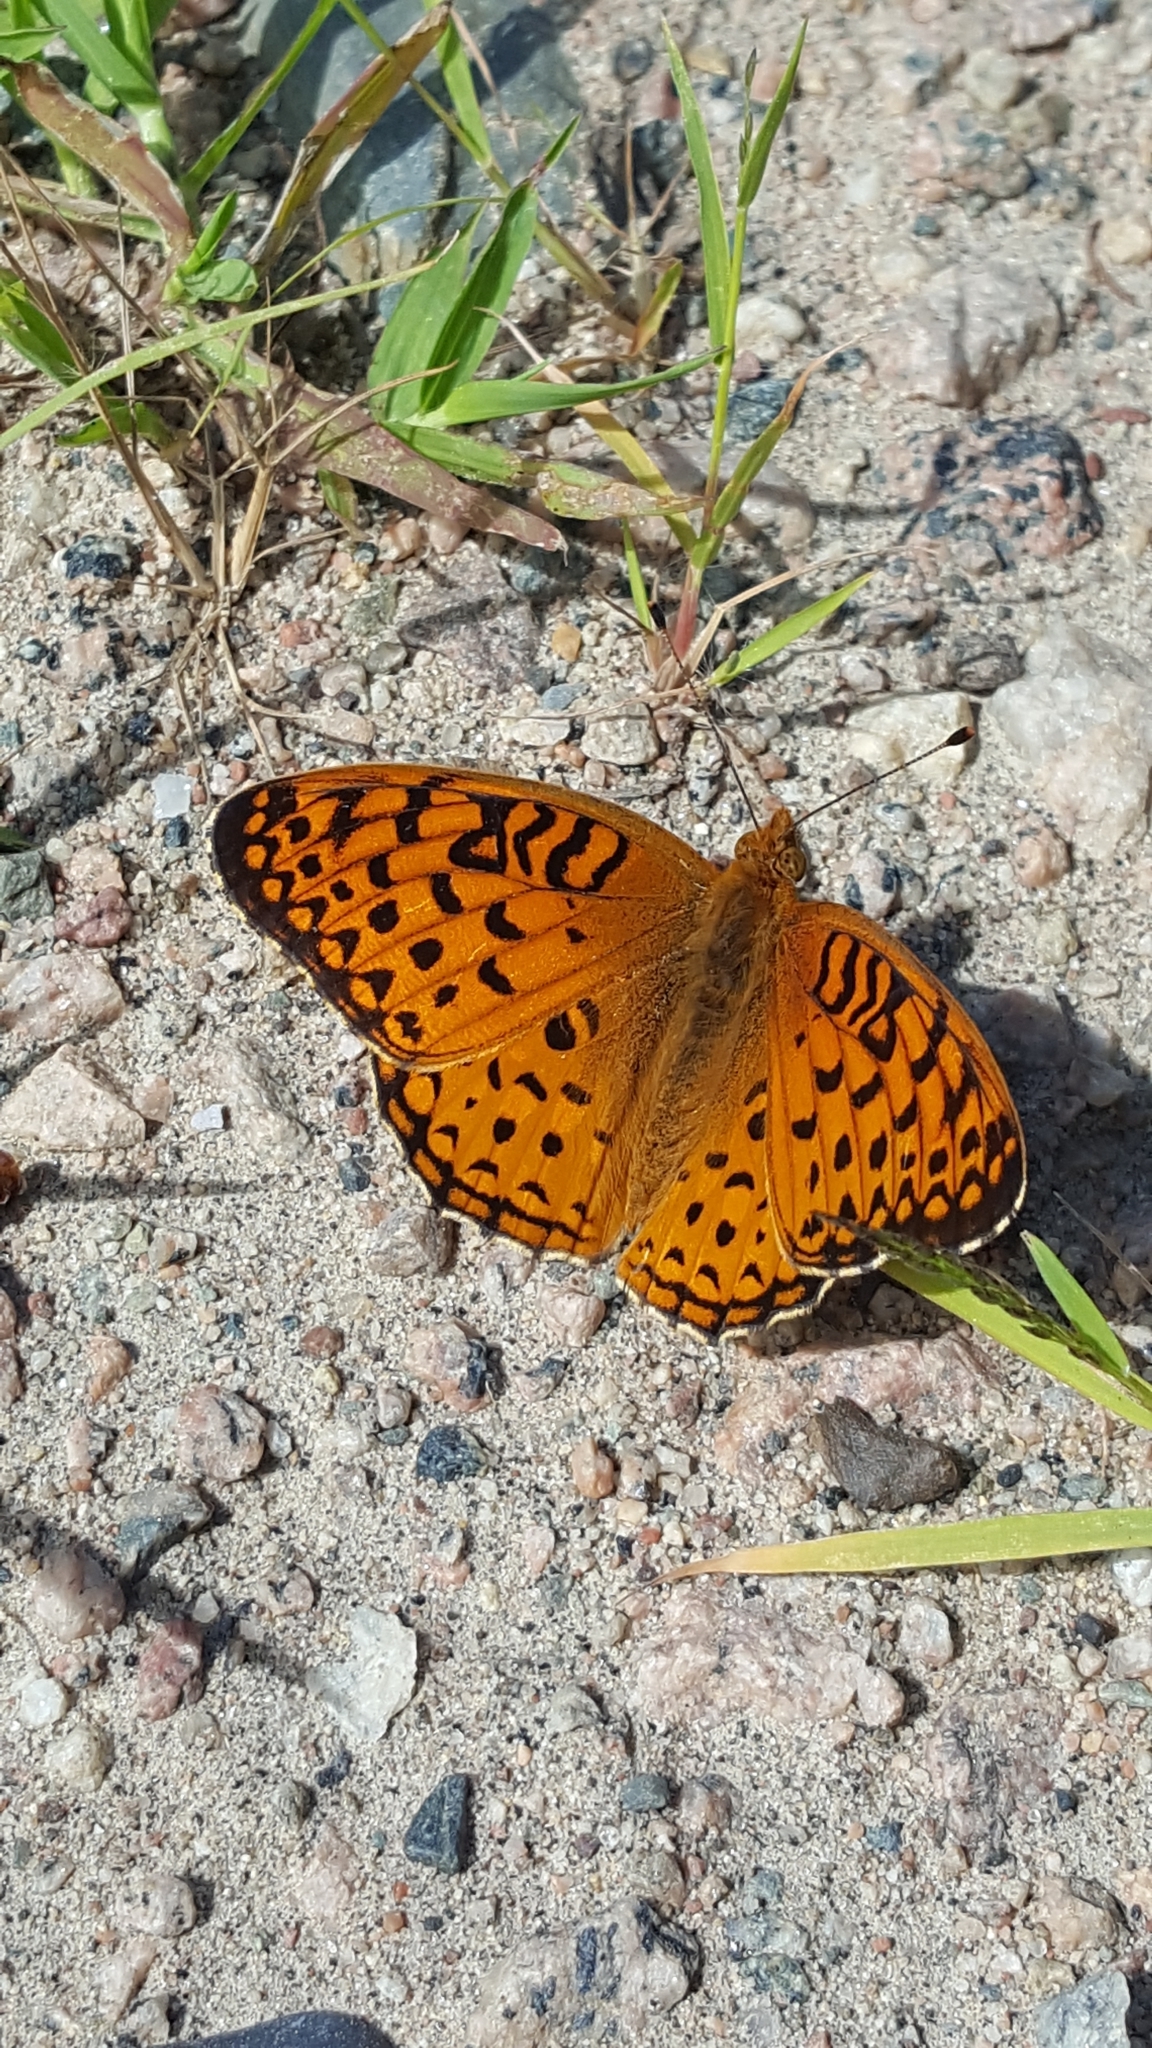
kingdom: Animalia
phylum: Arthropoda
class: Insecta
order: Lepidoptera
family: Nymphalidae
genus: Speyeria
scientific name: Speyeria aphrodite
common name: Aphrodite friitllary
